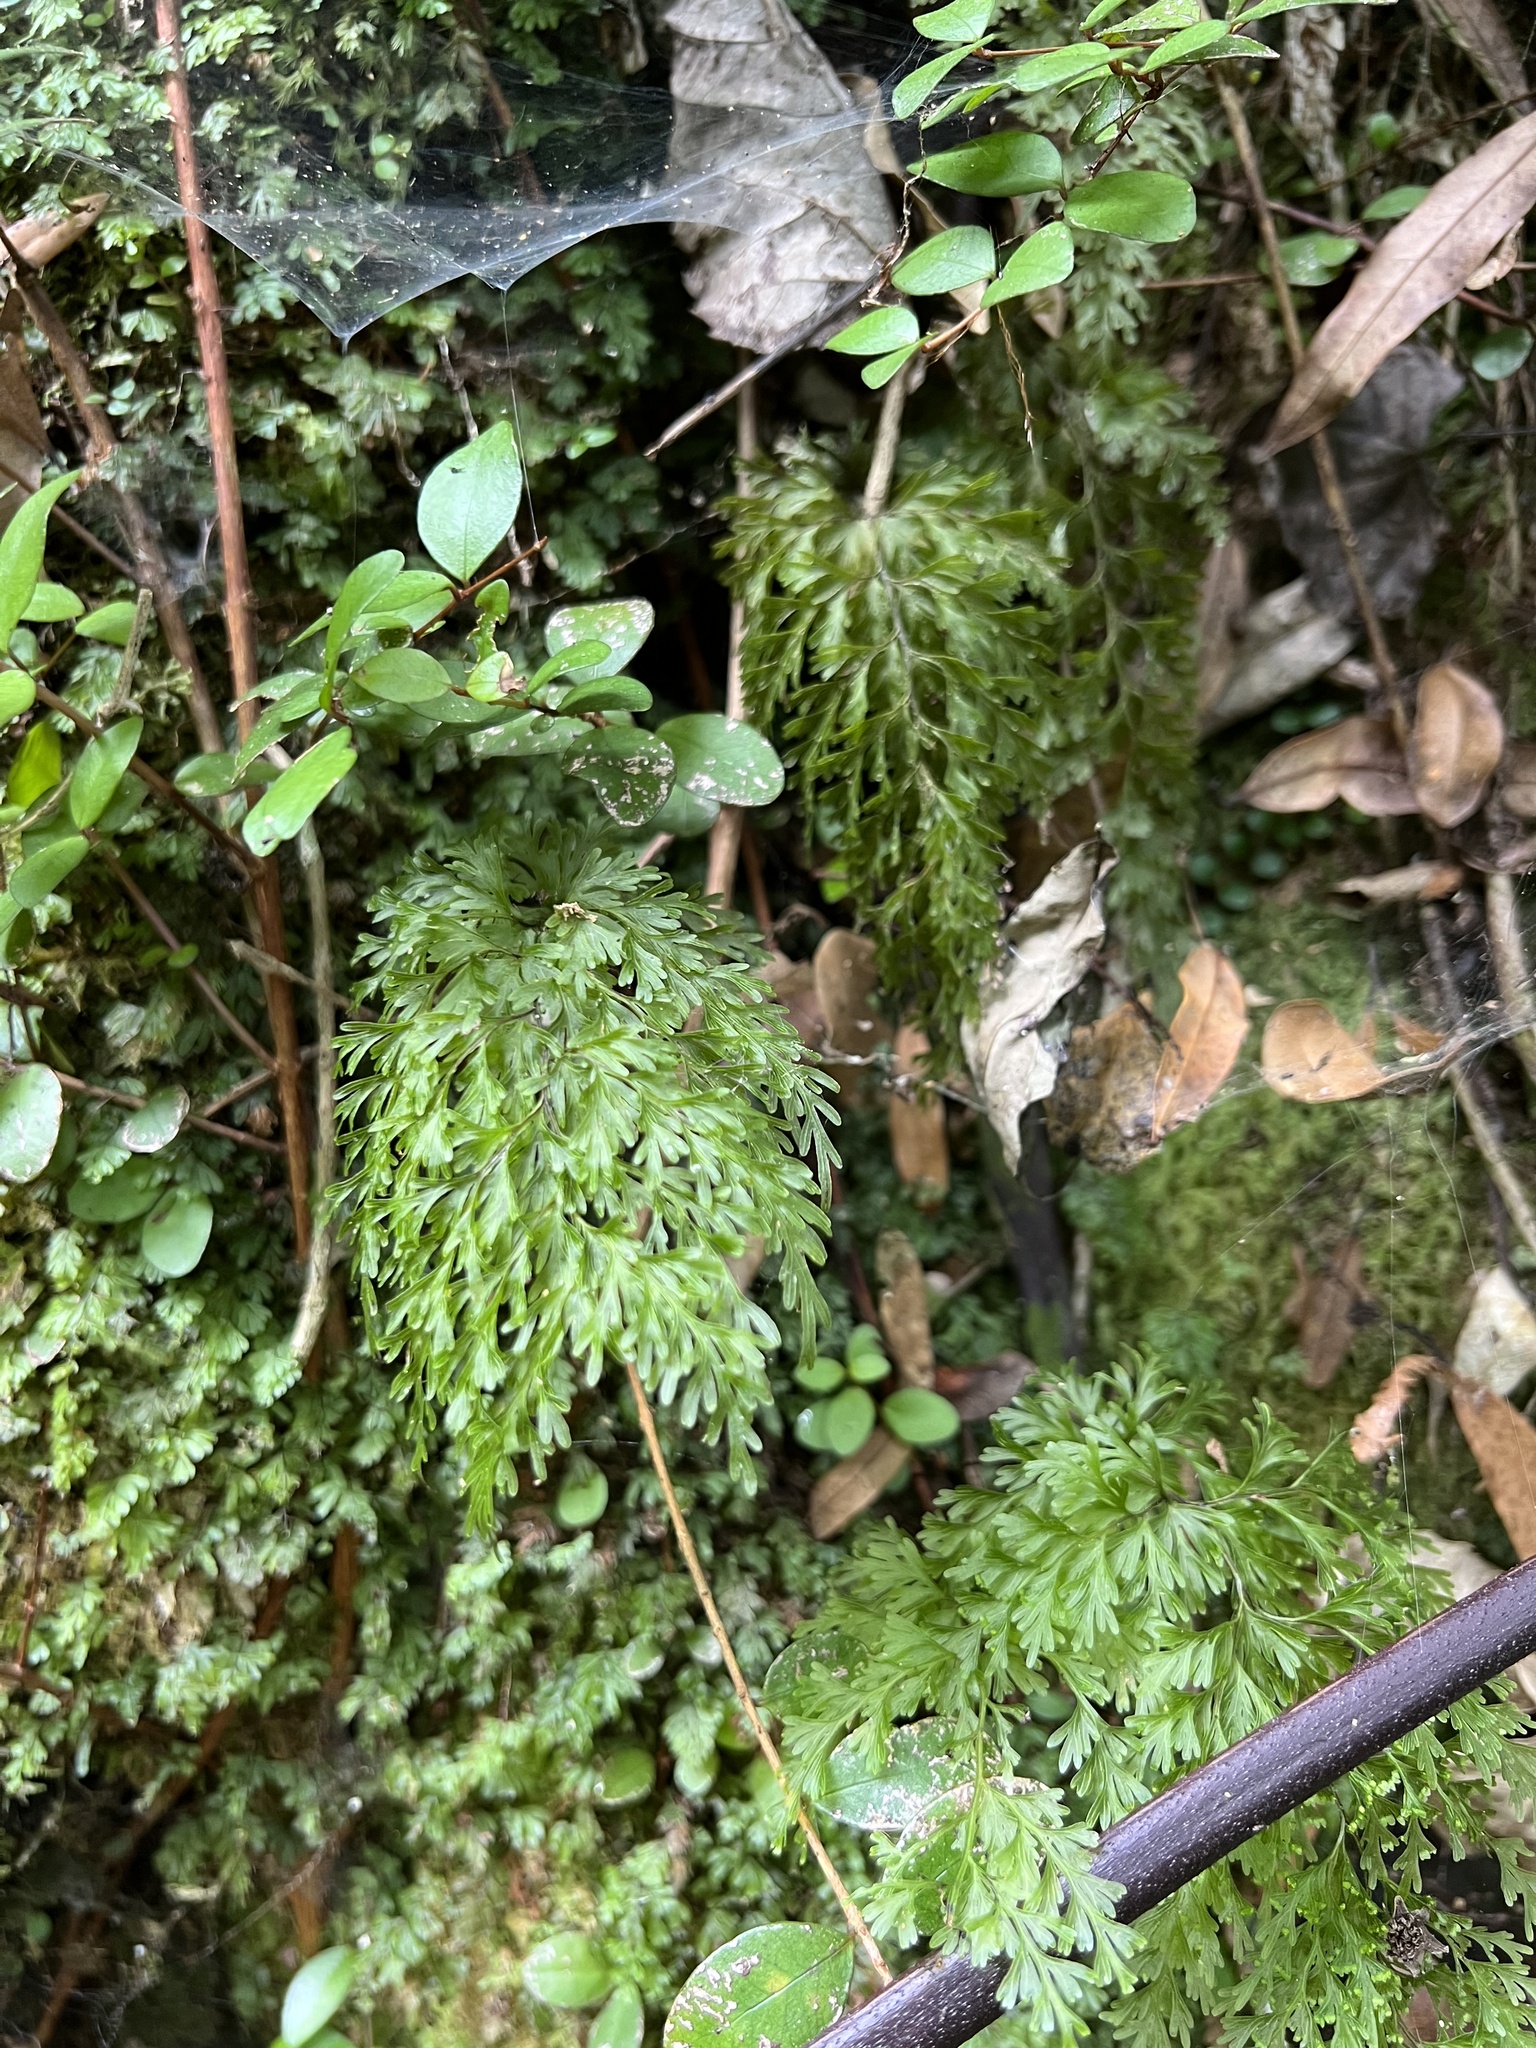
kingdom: Plantae
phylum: Tracheophyta
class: Polypodiopsida
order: Hymenophyllales
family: Hymenophyllaceae
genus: Hymenophyllum
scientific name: Hymenophyllum demissum
